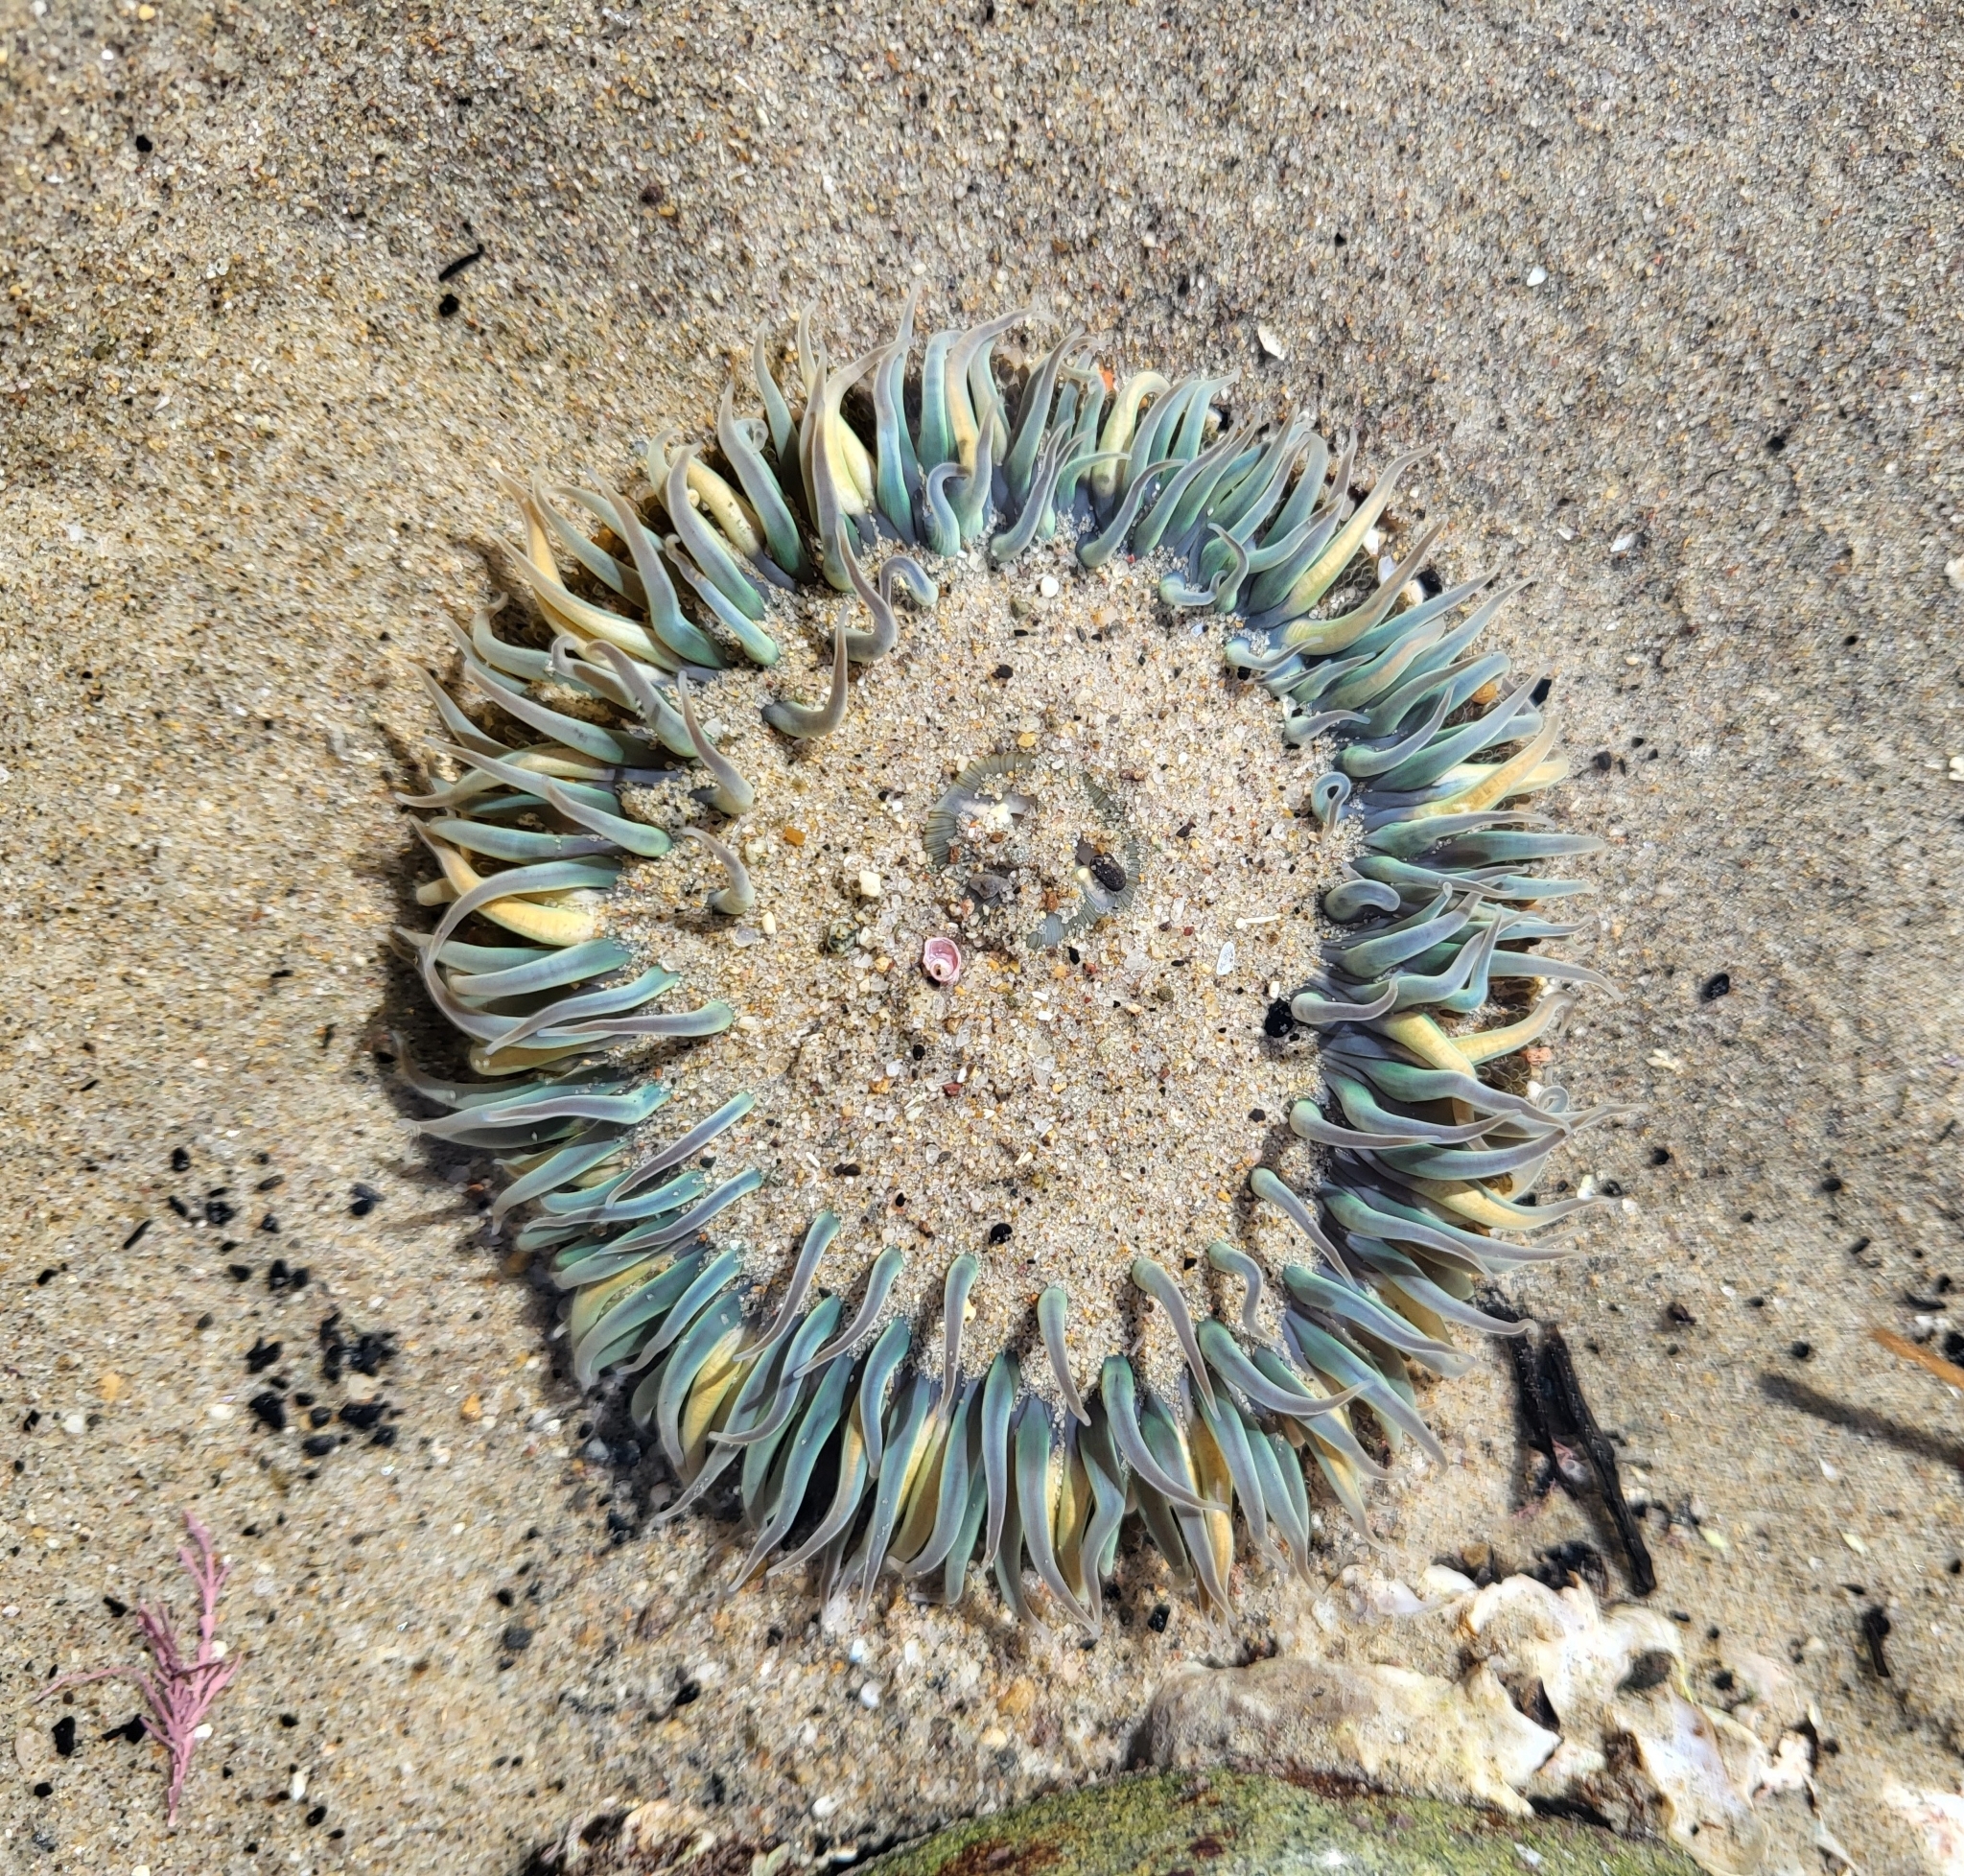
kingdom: Animalia
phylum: Cnidaria
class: Anthozoa
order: Actiniaria
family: Actiniidae
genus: Anthopleura
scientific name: Anthopleura sola
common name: Sun anemone
